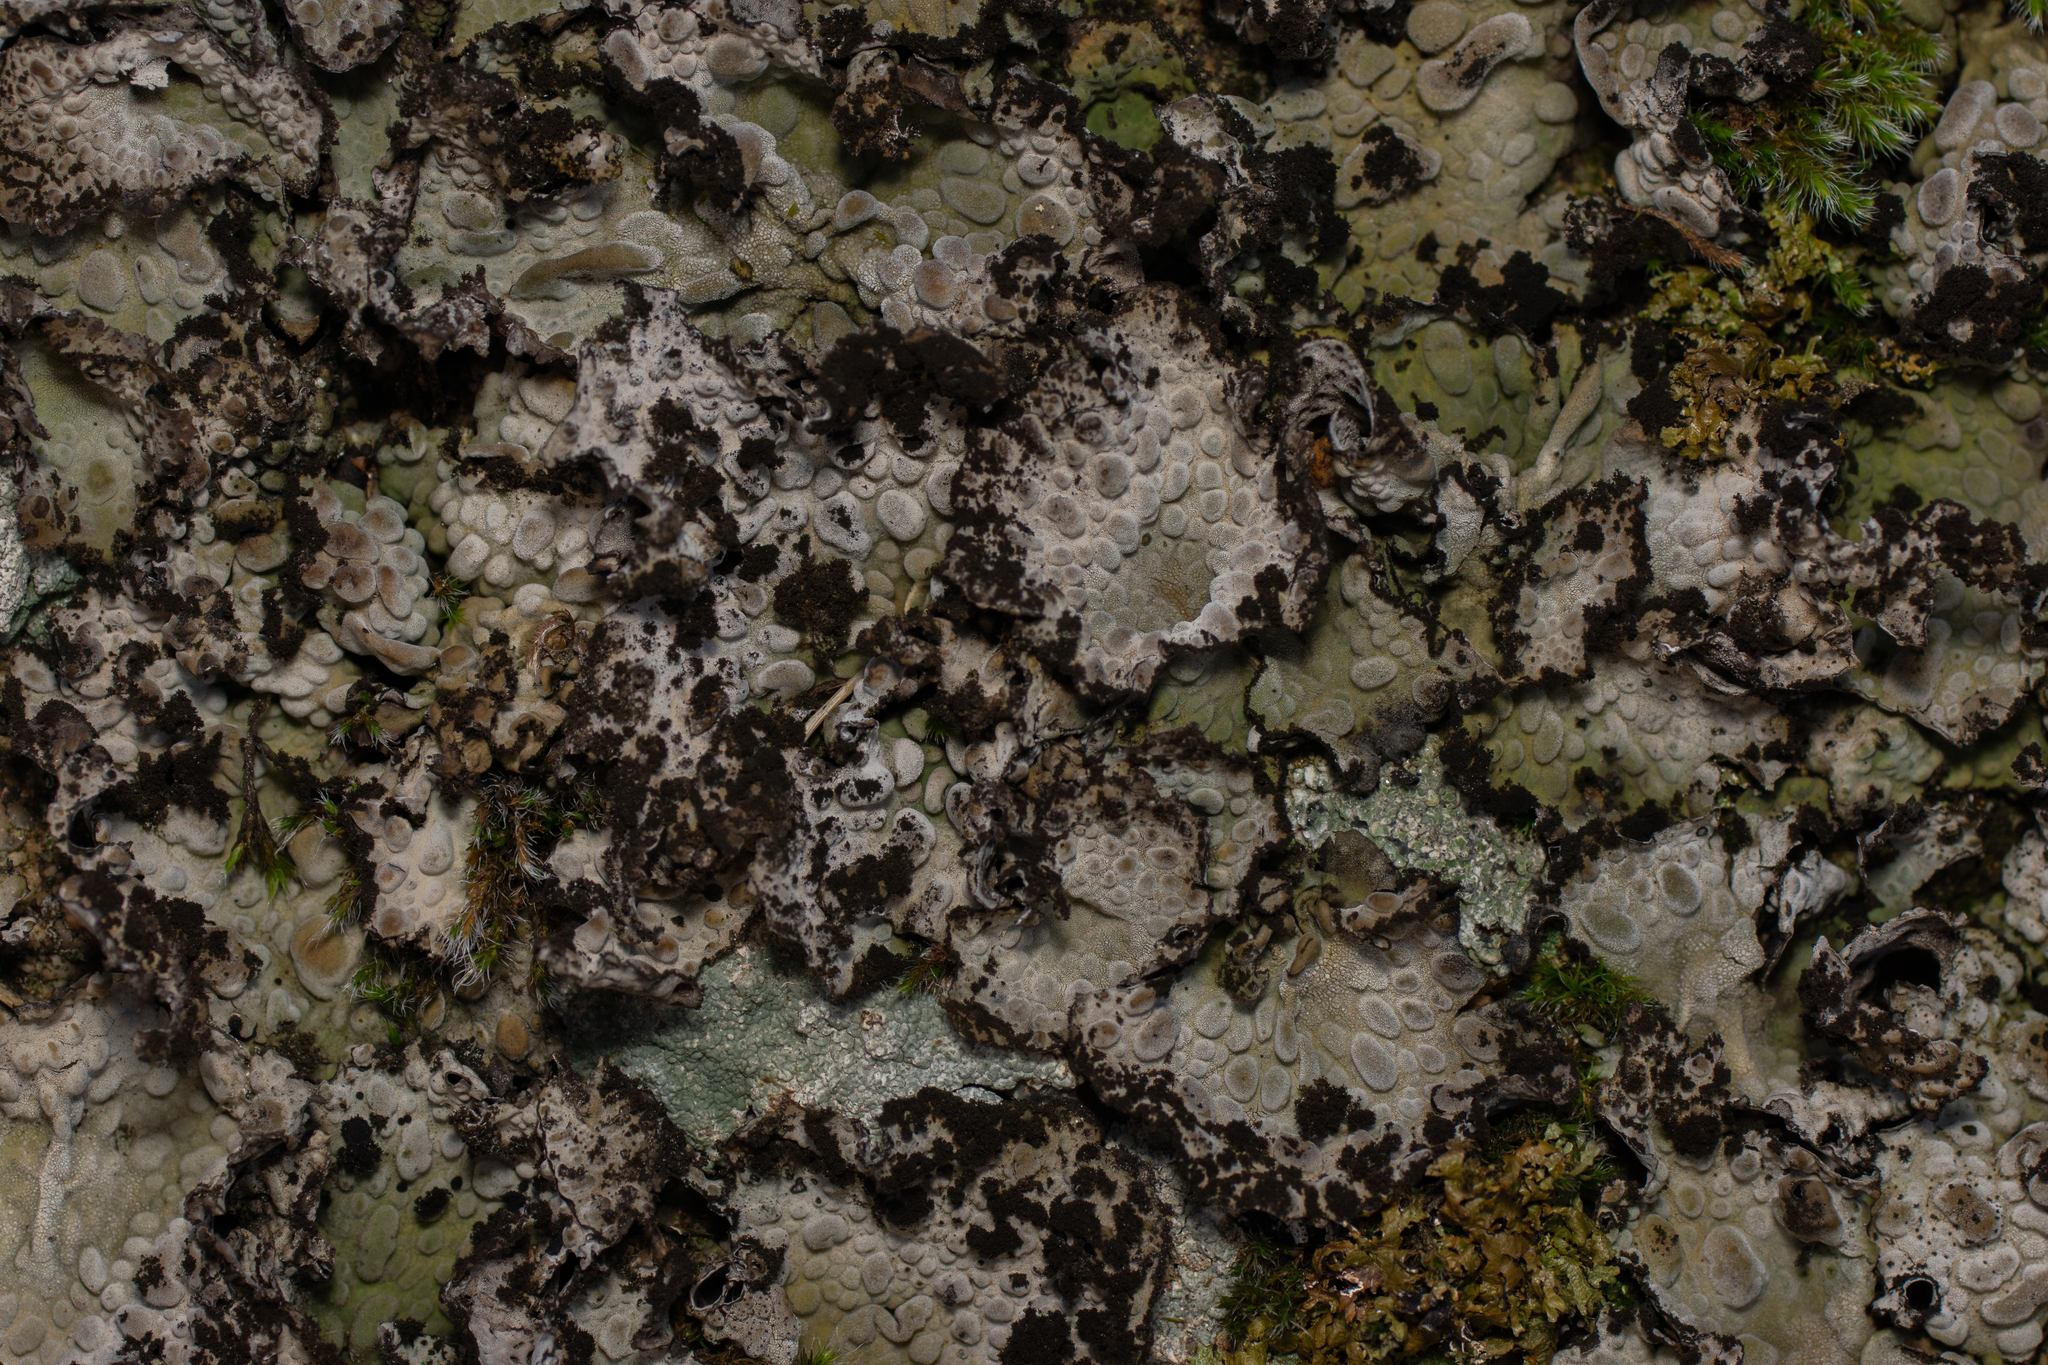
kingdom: Fungi
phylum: Ascomycota
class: Lecanoromycetes
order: Umbilicariales
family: Umbilicariaceae
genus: Lasallia
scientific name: Lasallia pustulata
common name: Blistered toadskin lichen
